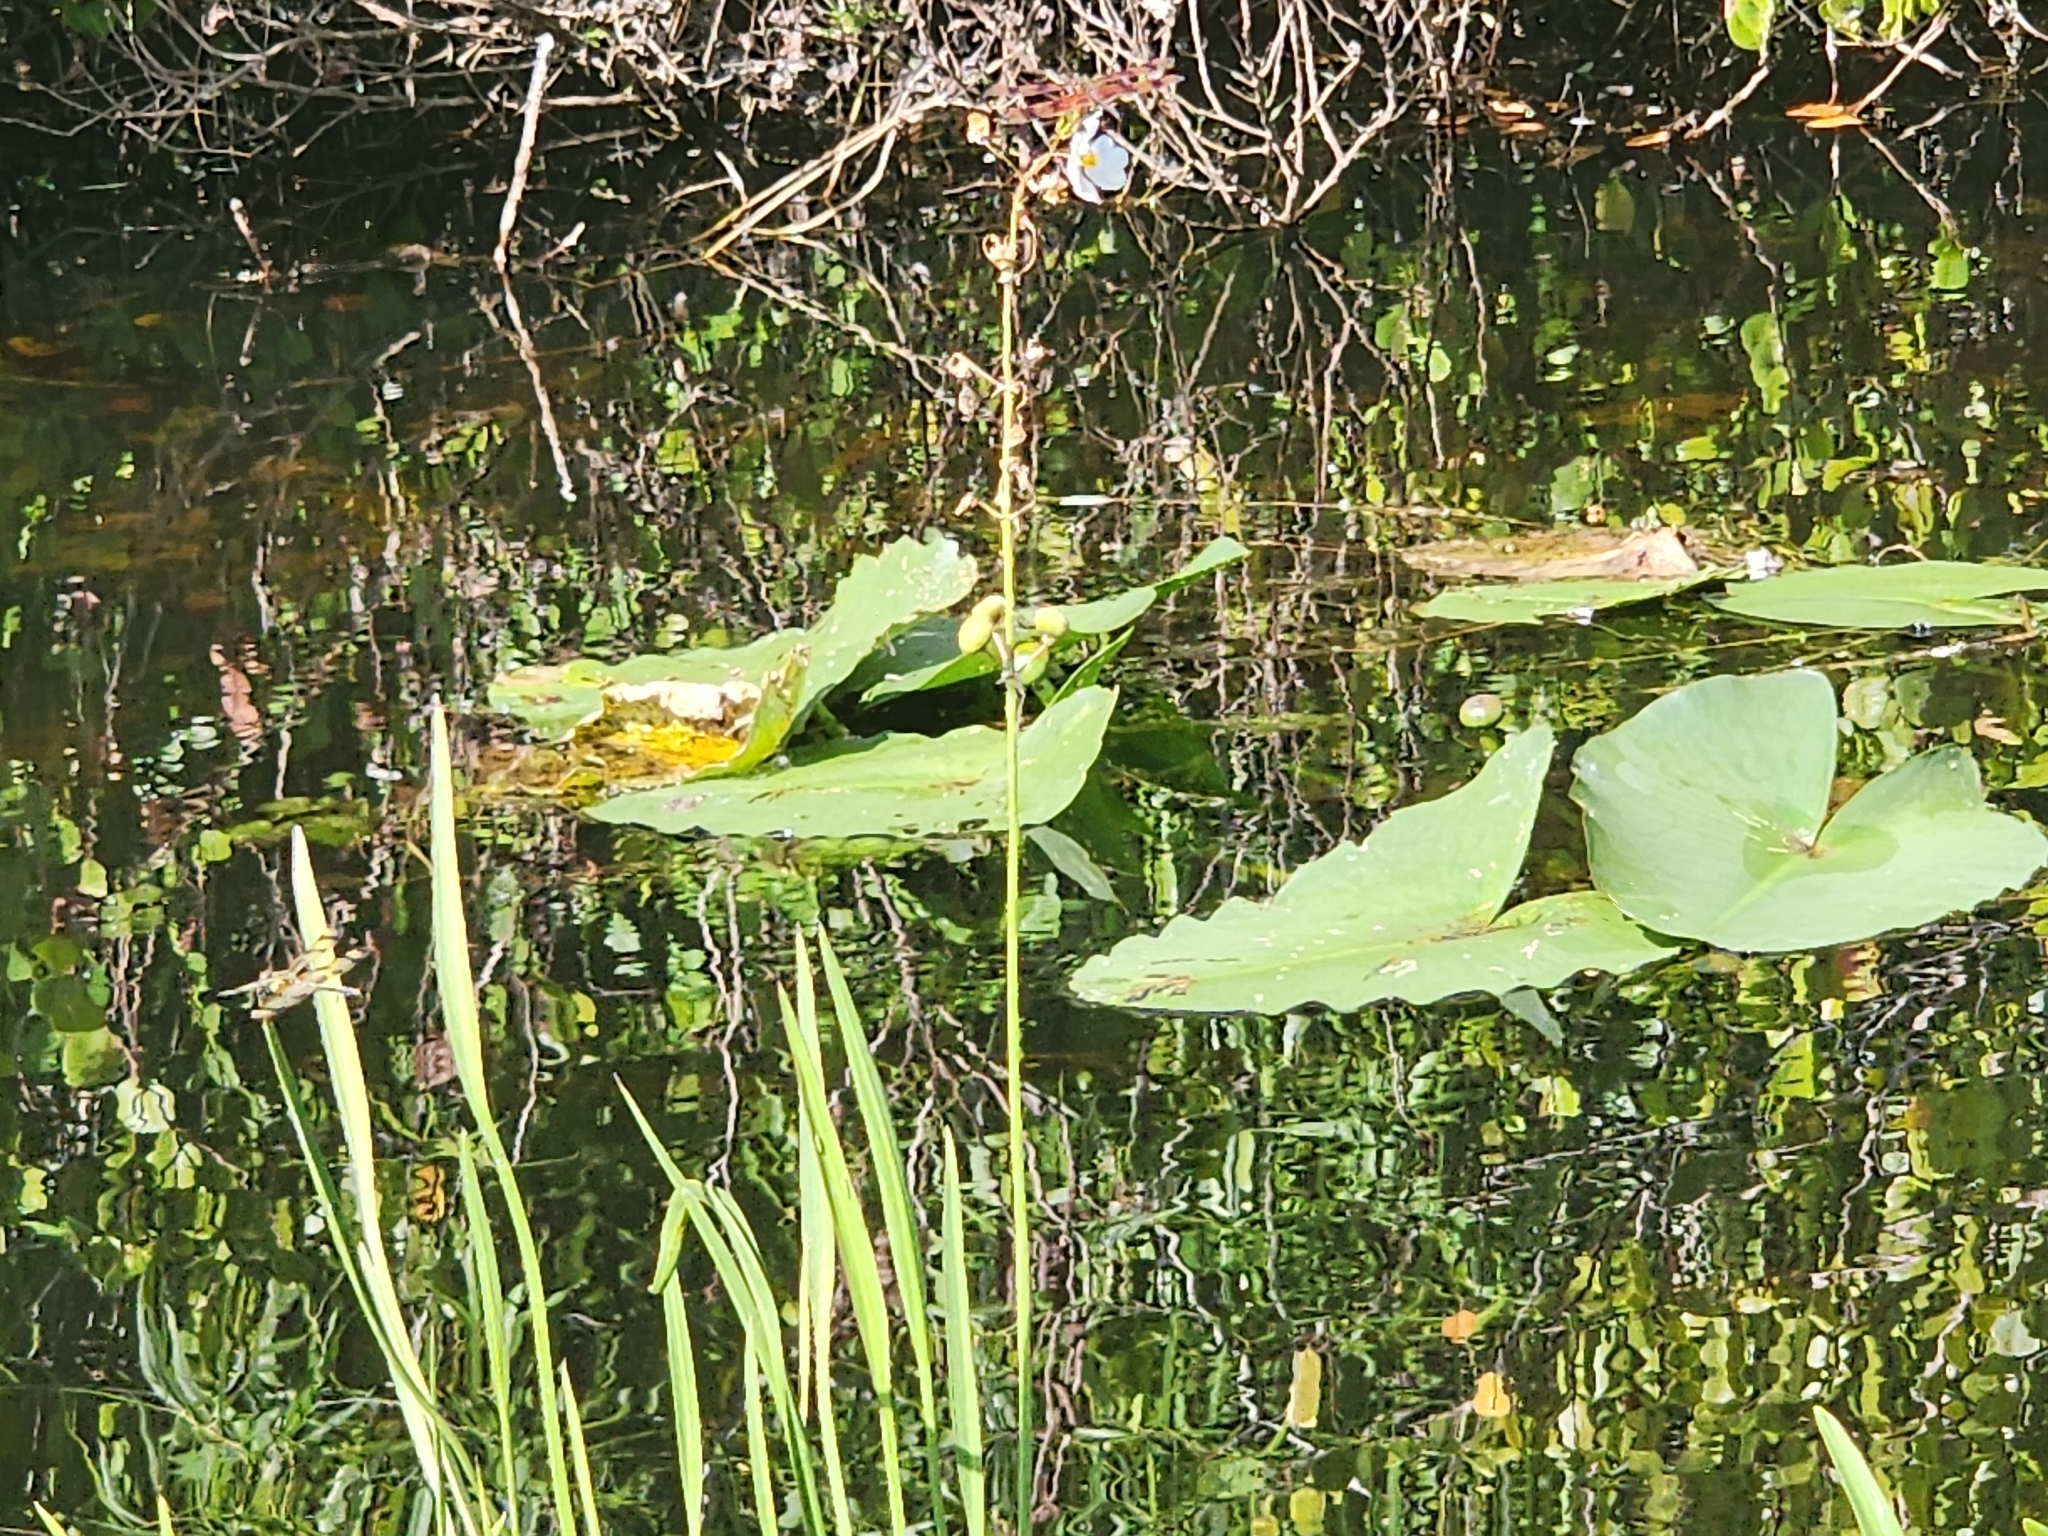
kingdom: Plantae
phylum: Tracheophyta
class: Liliopsida
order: Alismatales
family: Alismataceae
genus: Sagittaria
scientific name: Sagittaria lancifolia
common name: Lance-leaf arrowhead
